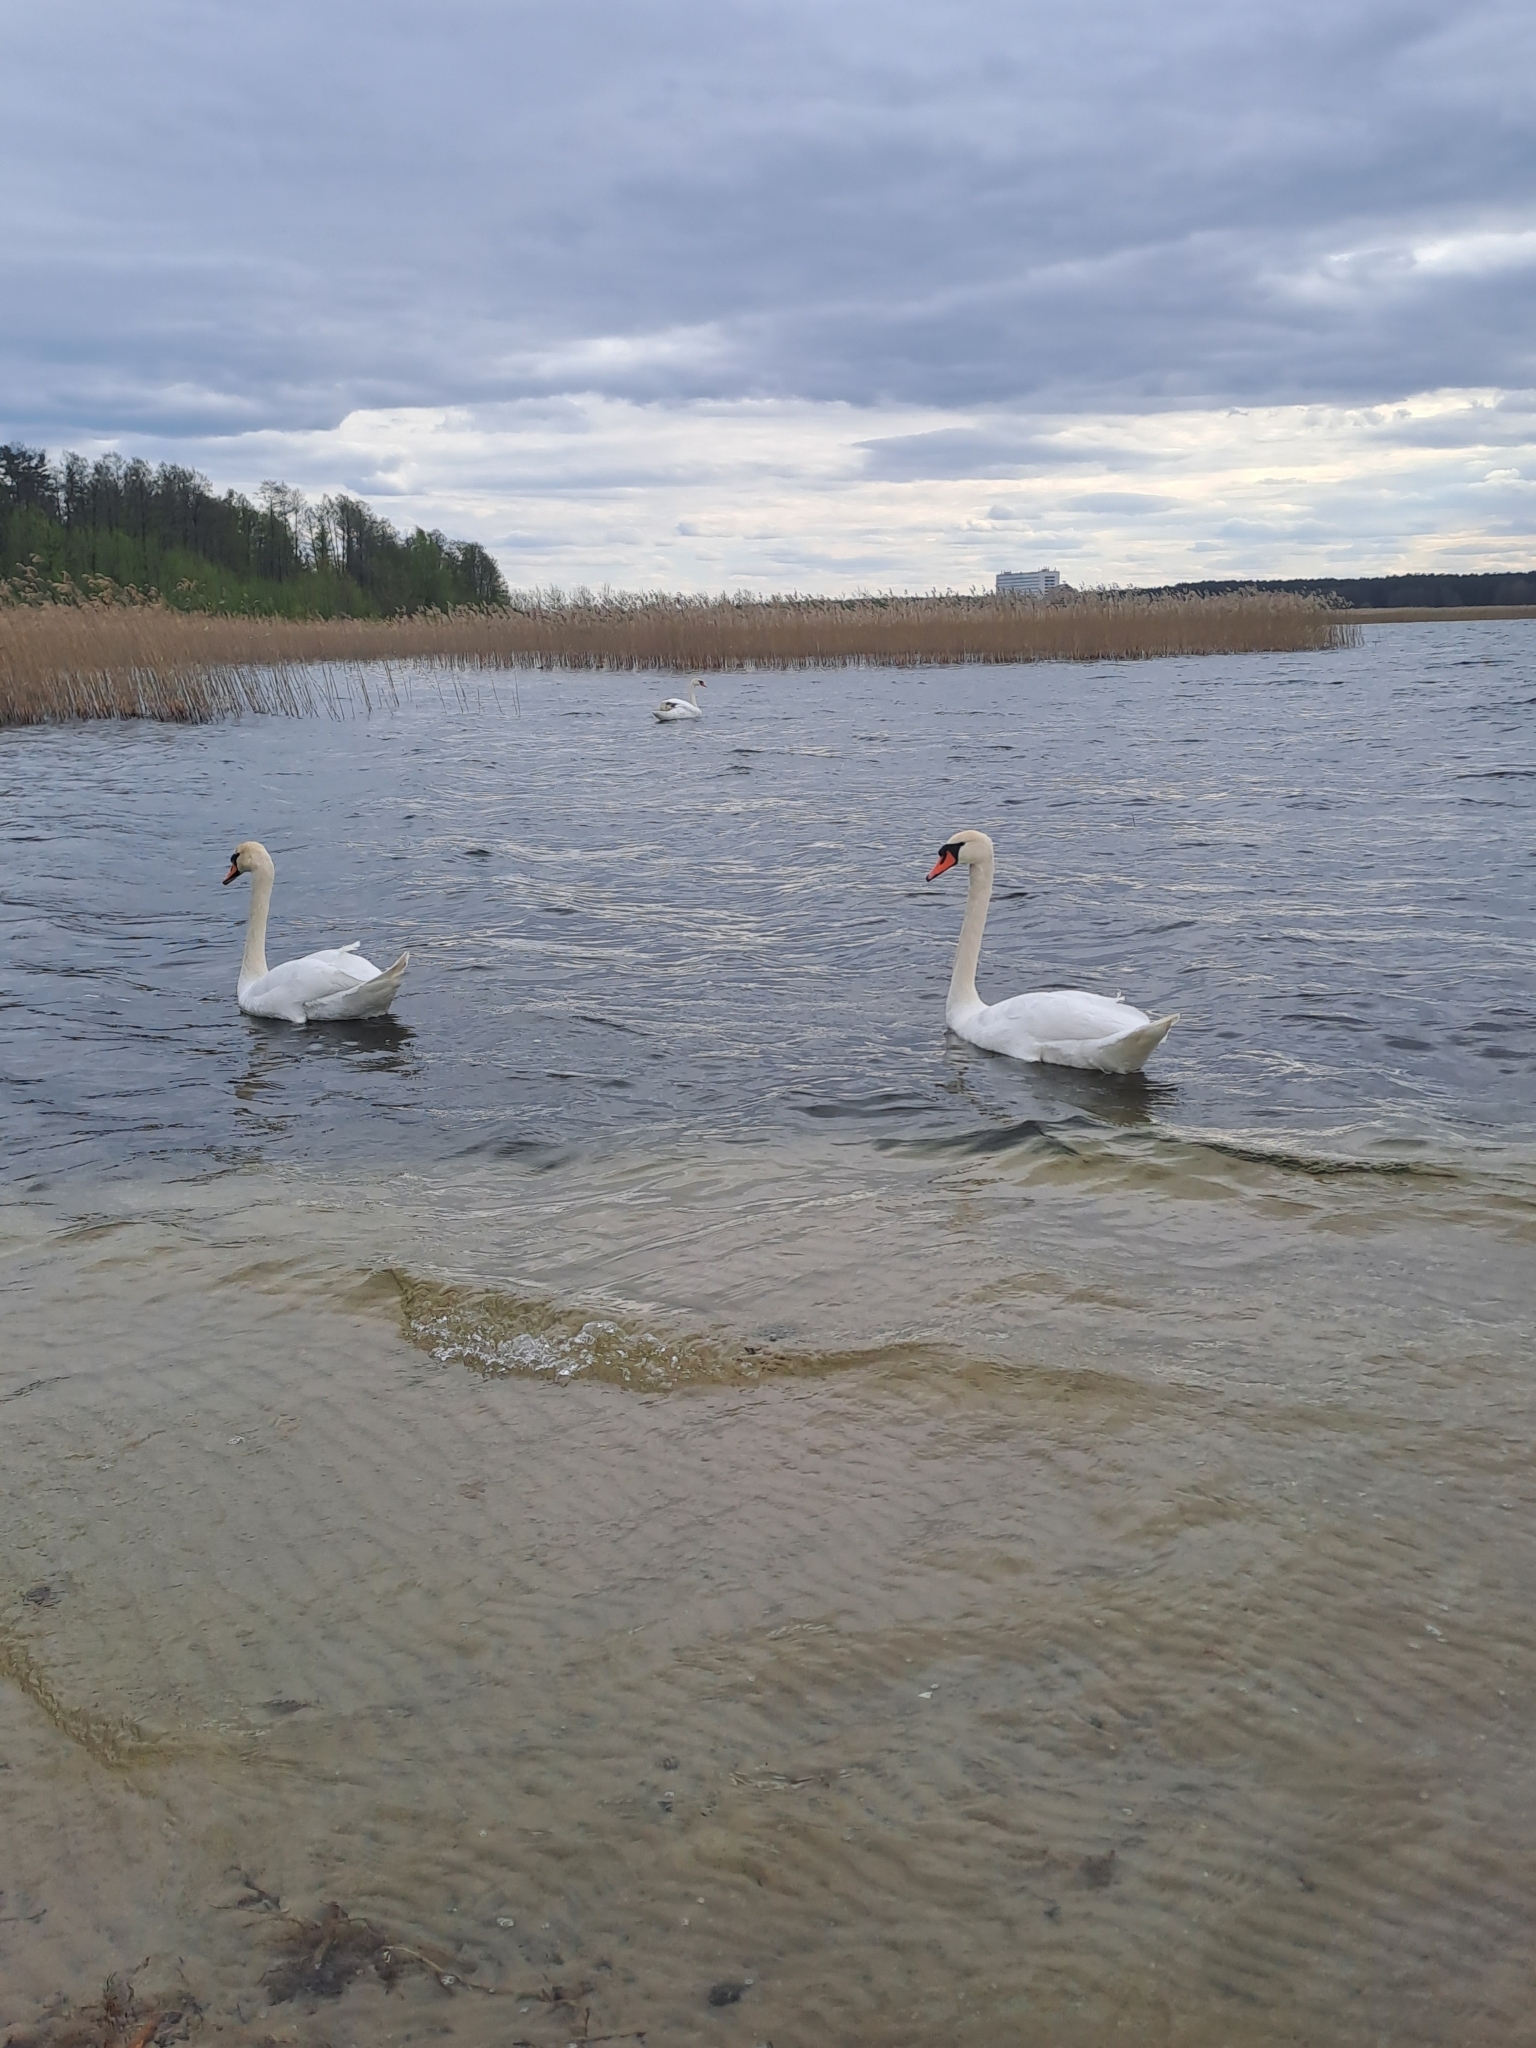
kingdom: Animalia
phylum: Chordata
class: Aves
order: Anseriformes
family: Anatidae
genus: Cygnus
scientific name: Cygnus olor
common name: Mute swan
